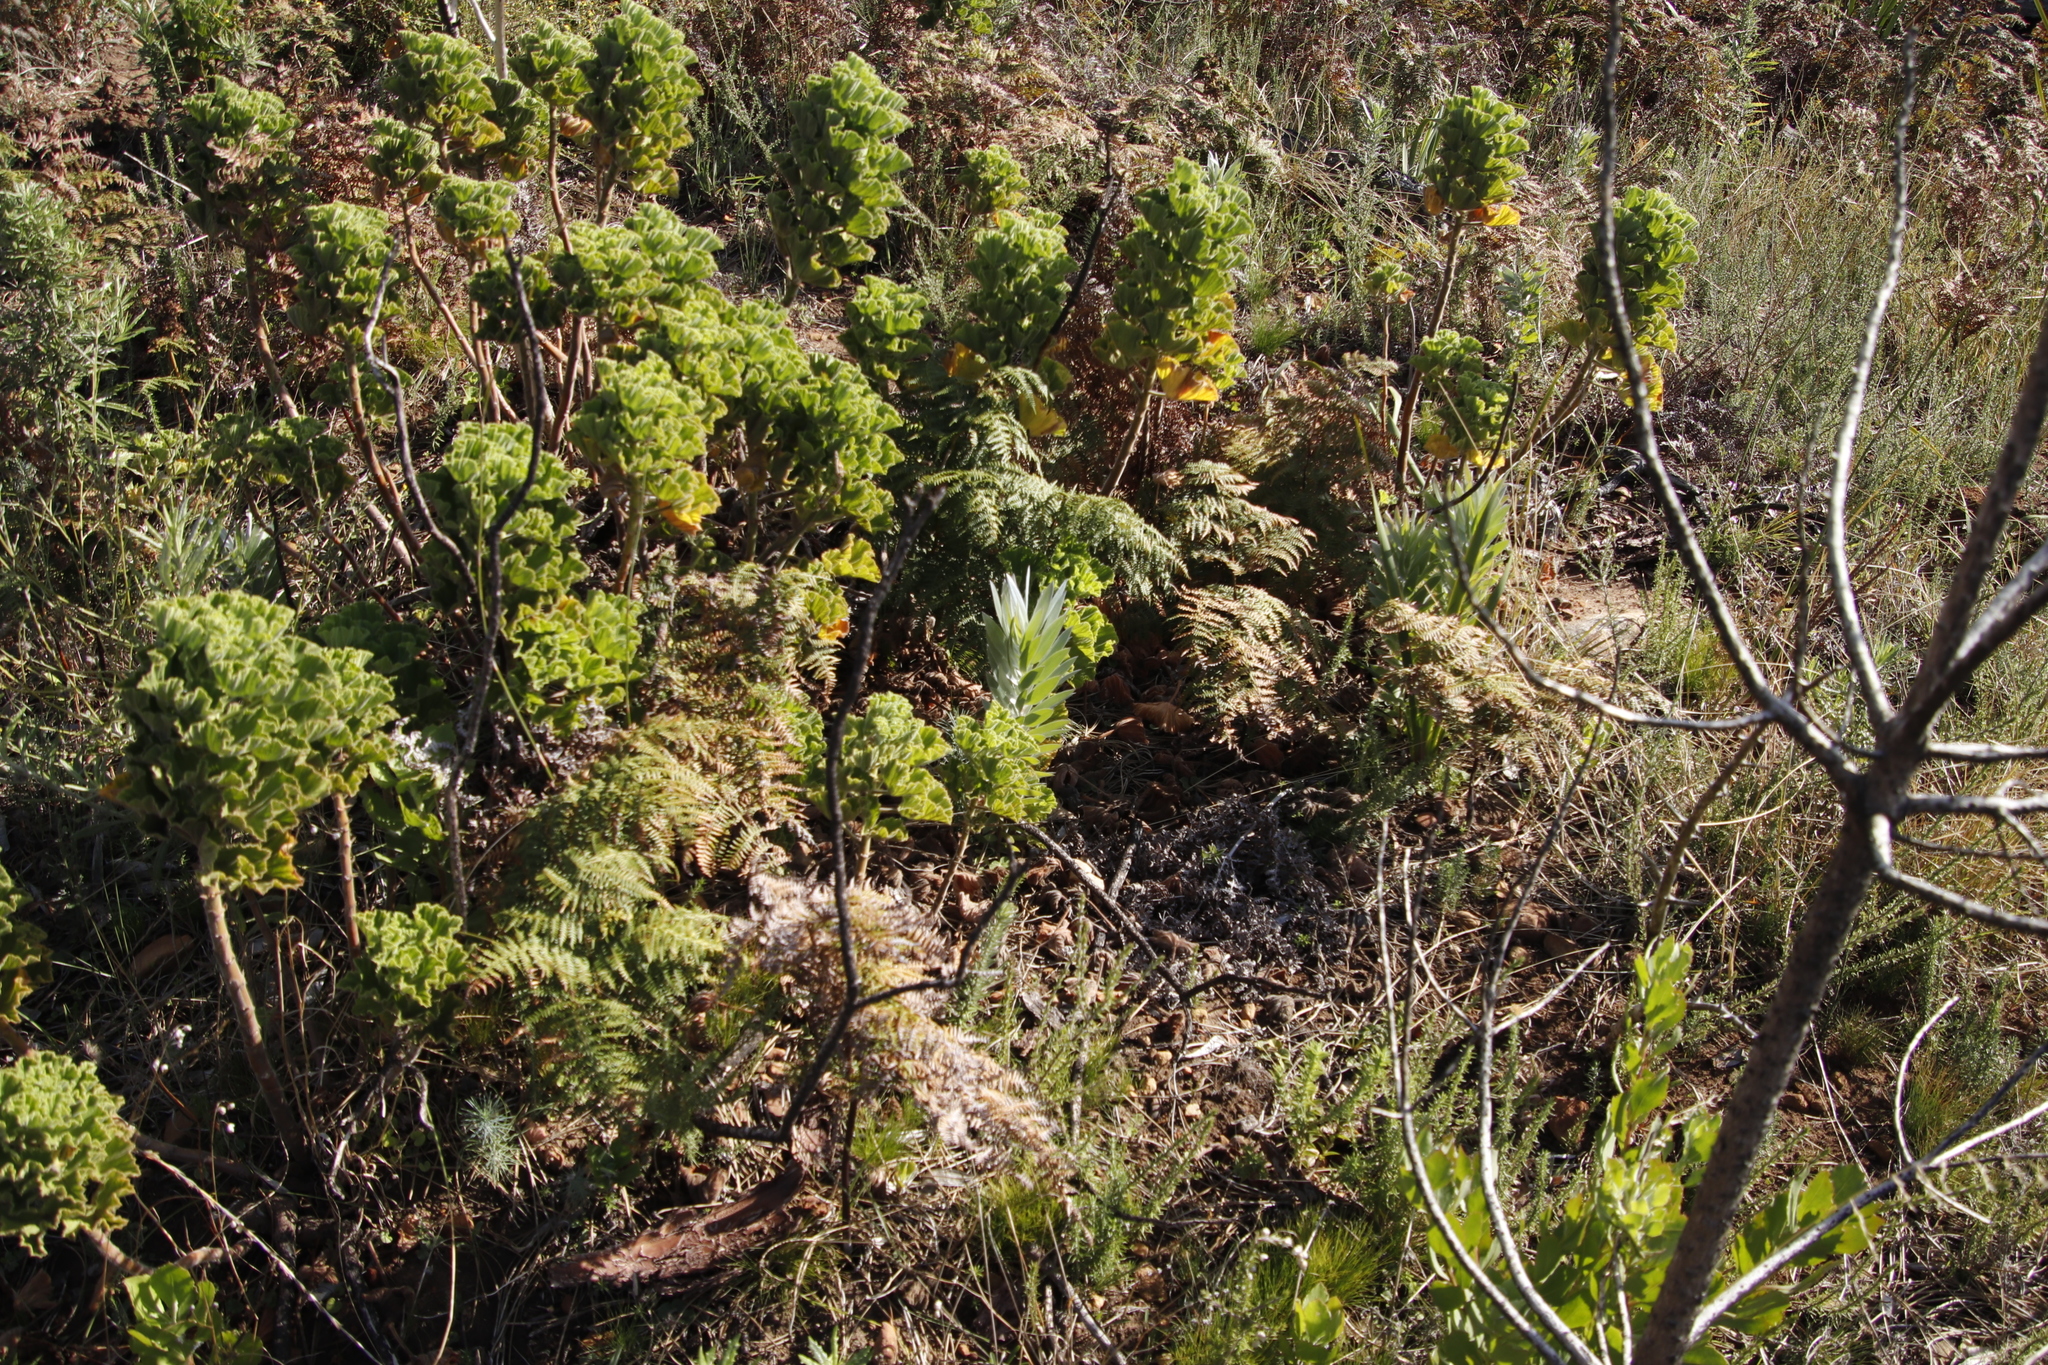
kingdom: Plantae
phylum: Tracheophyta
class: Magnoliopsida
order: Geraniales
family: Geraniaceae
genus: Pelargonium
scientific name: Pelargonium cucullatum
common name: Tree pelargonium
